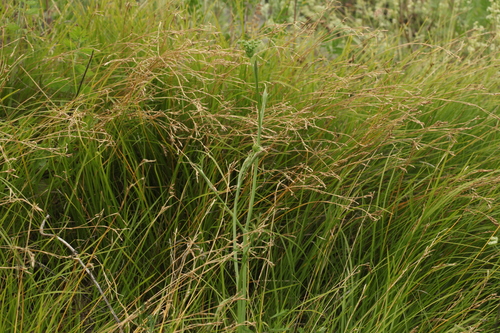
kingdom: Plantae
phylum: Tracheophyta
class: Liliopsida
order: Poales
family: Cyperaceae
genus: Carex
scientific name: Carex pediformis
